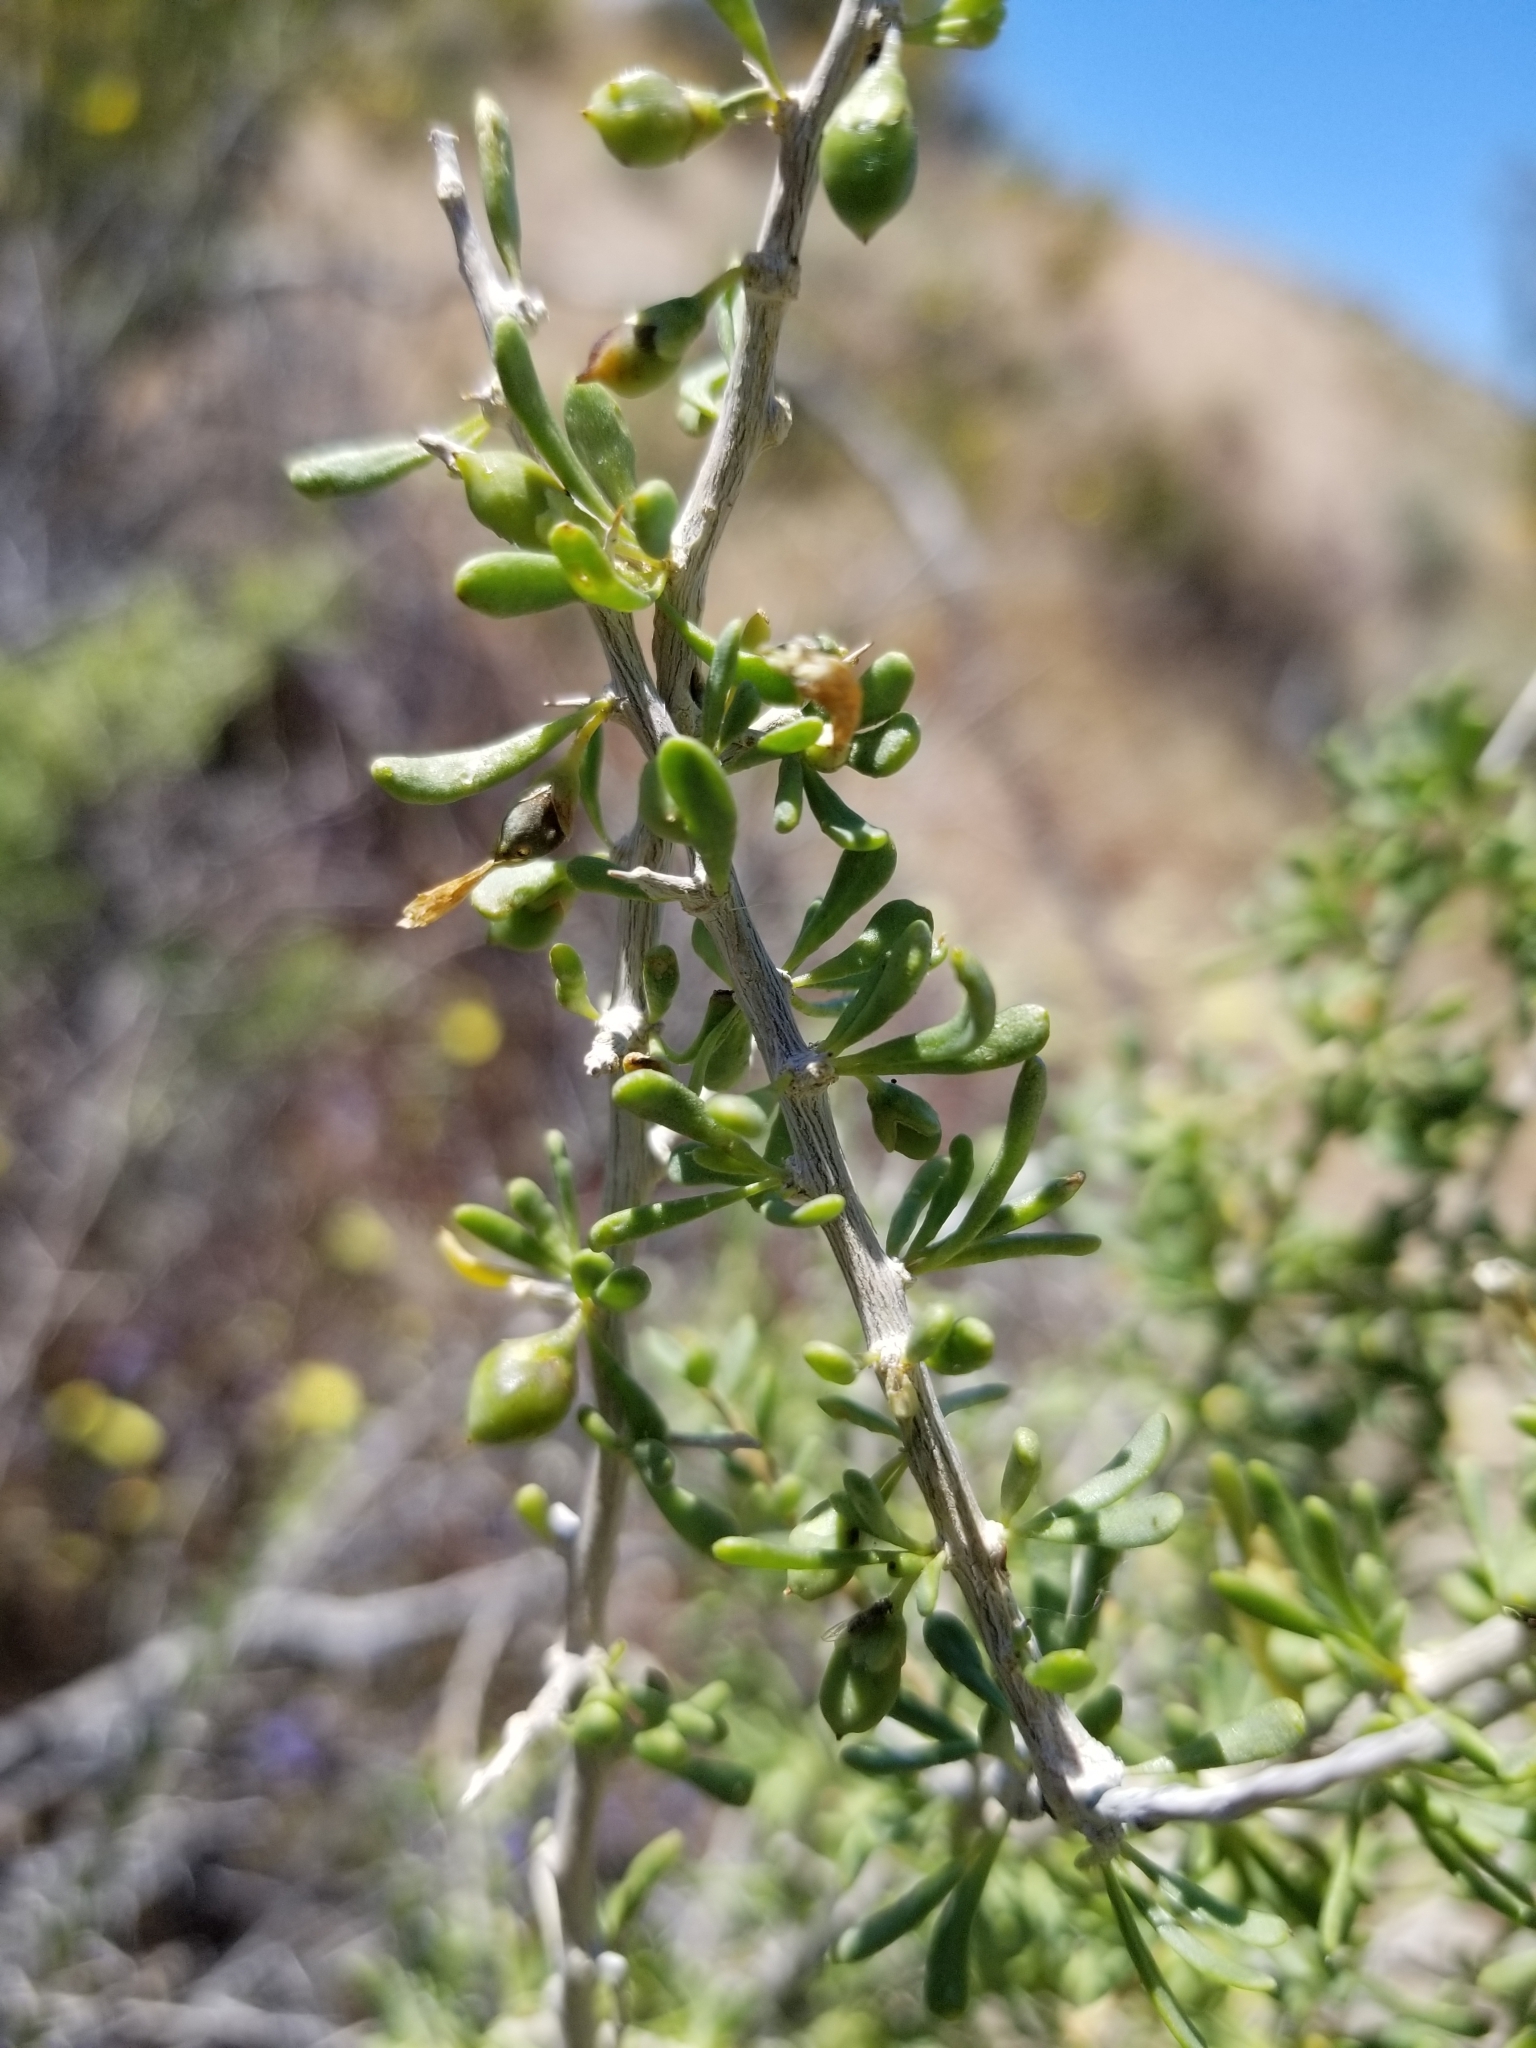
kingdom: Plantae
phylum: Tracheophyta
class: Magnoliopsida
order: Solanales
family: Solanaceae
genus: Lycium
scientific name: Lycium andersonii
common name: Water-jacket
